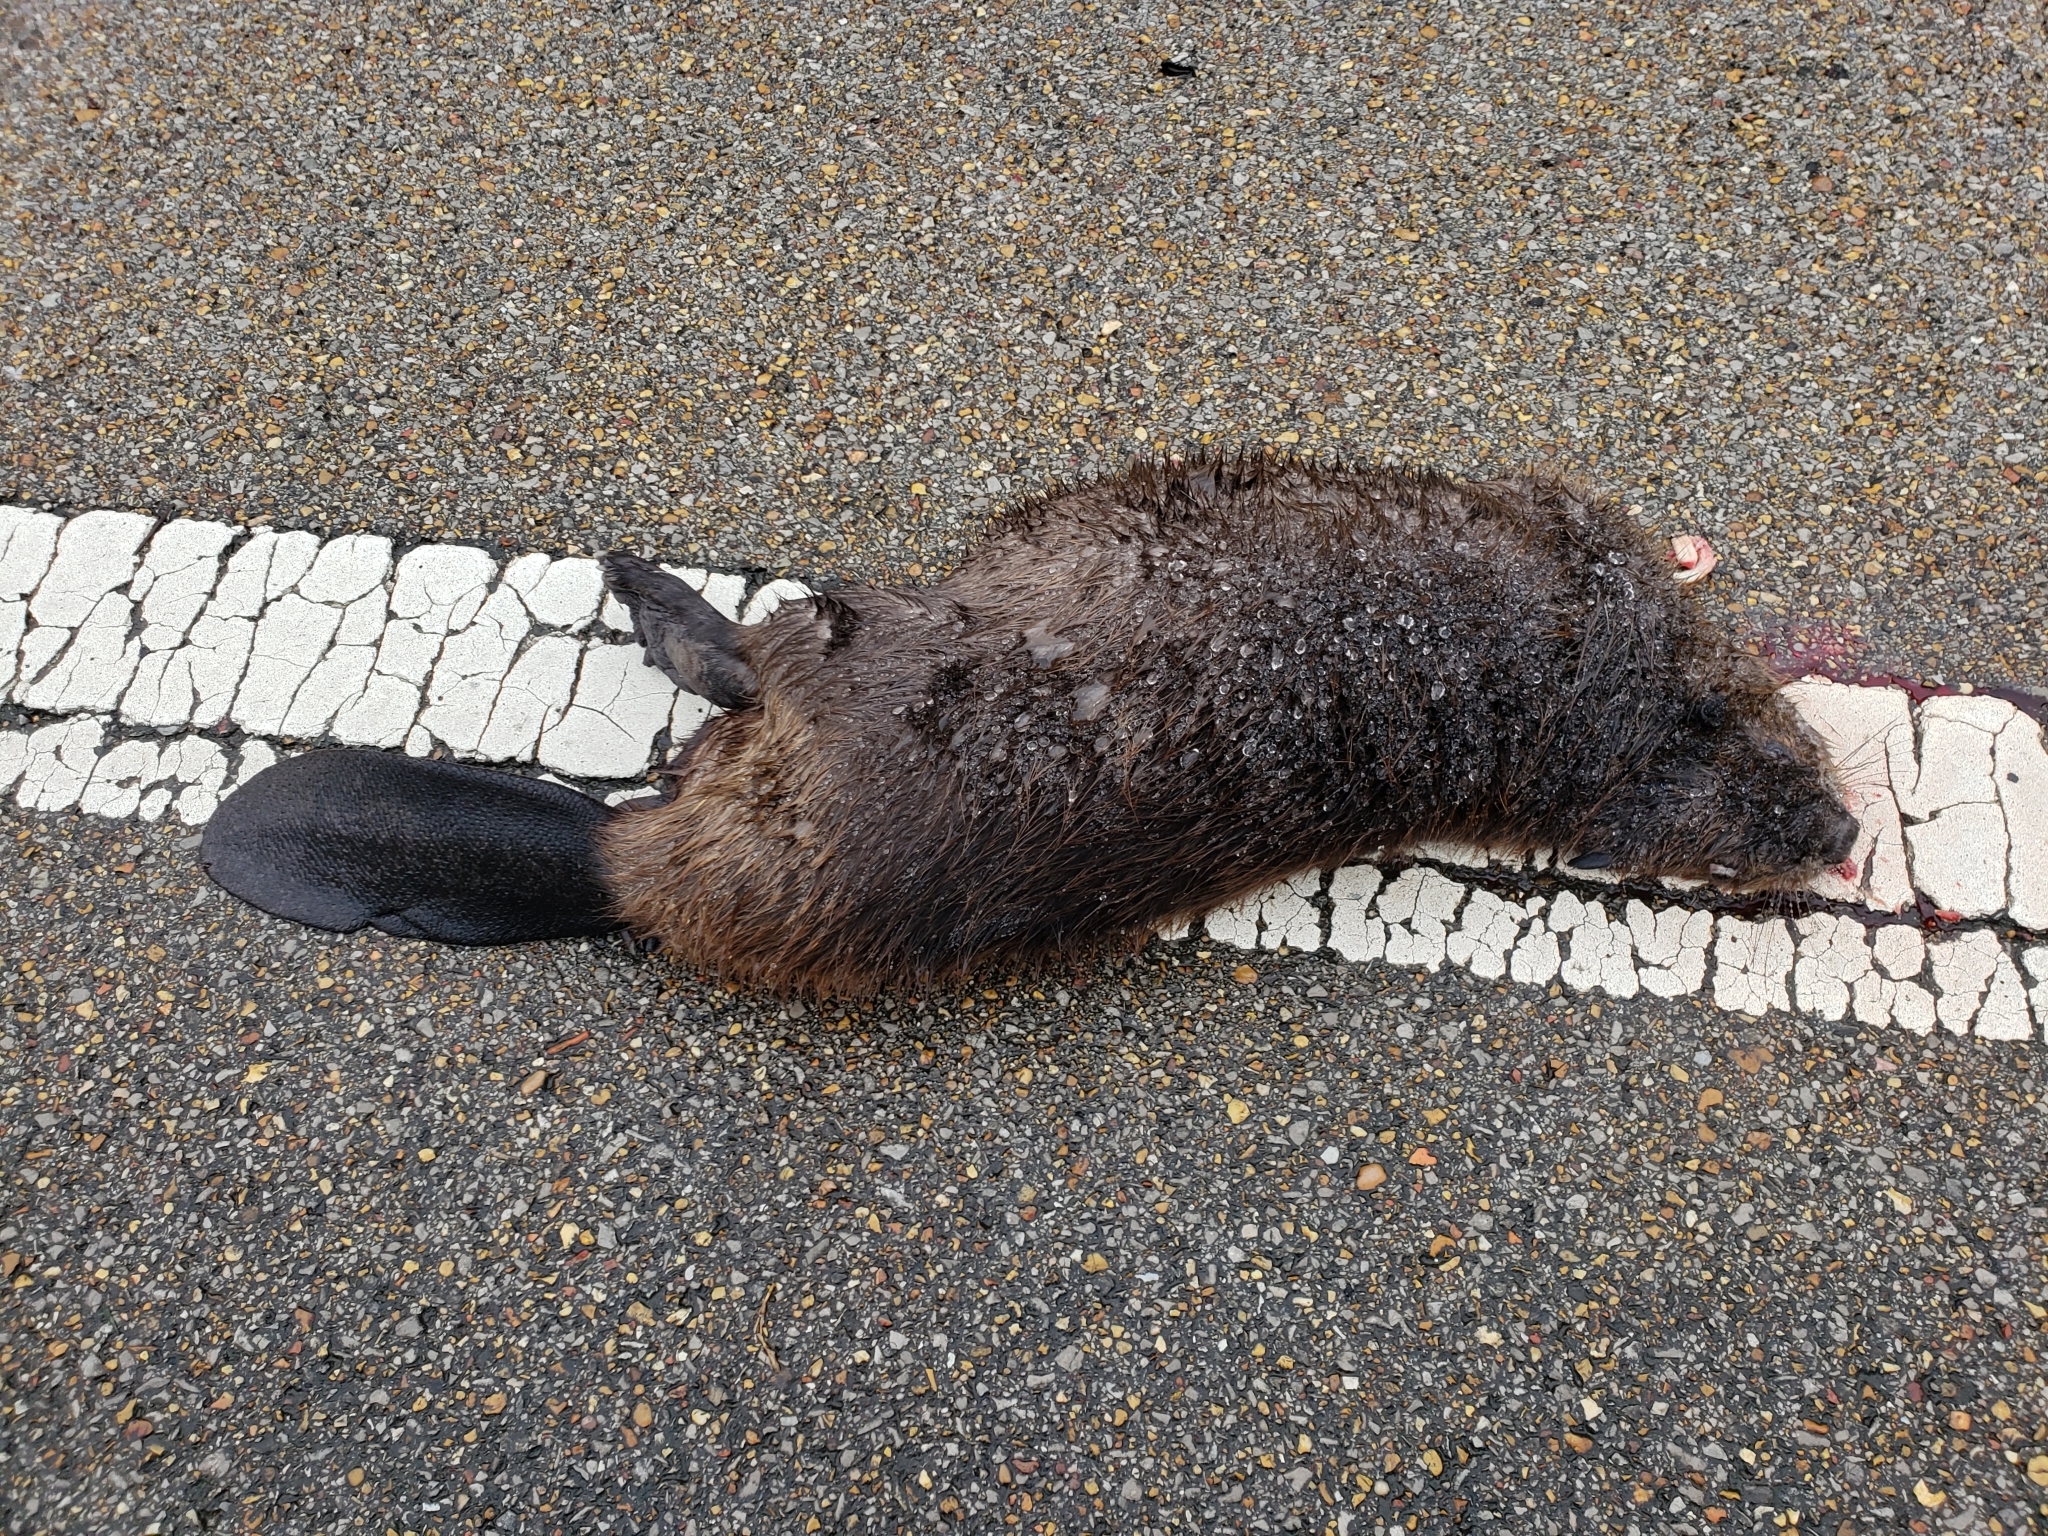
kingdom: Animalia
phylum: Chordata
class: Mammalia
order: Rodentia
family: Castoridae
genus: Castor
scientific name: Castor canadensis
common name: American beaver
